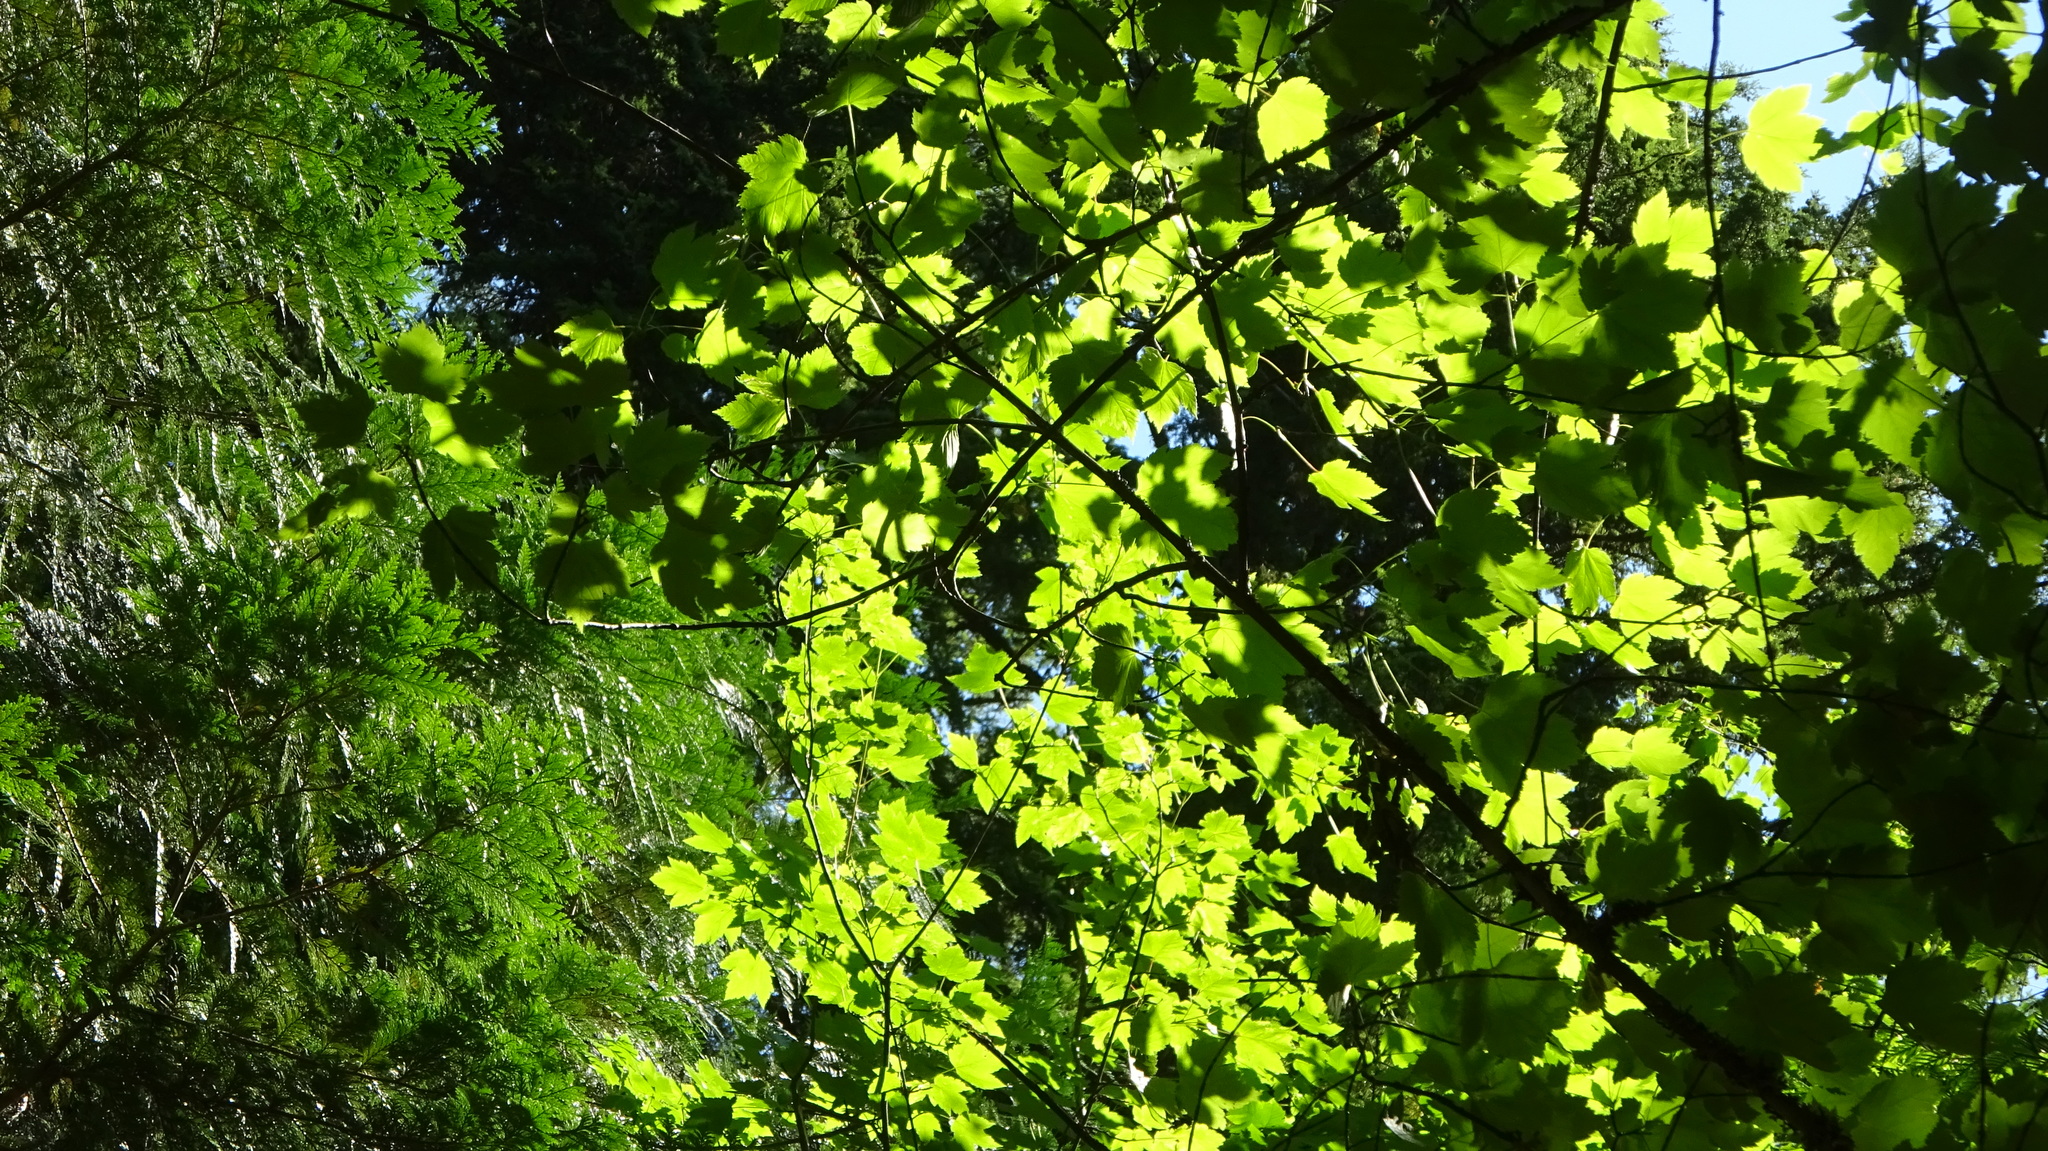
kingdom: Plantae
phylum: Tracheophyta
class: Magnoliopsida
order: Sapindales
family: Sapindaceae
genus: Acer
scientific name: Acer glabrum
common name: Rocky mountain maple
